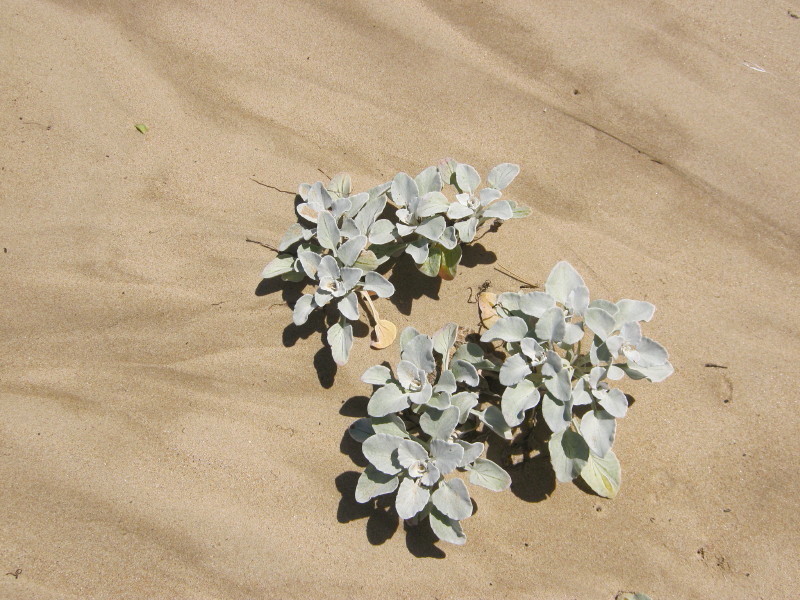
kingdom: Plantae
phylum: Tracheophyta
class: Magnoliopsida
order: Asterales
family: Asteraceae
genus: Arctotheca
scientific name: Arctotheca populifolia
